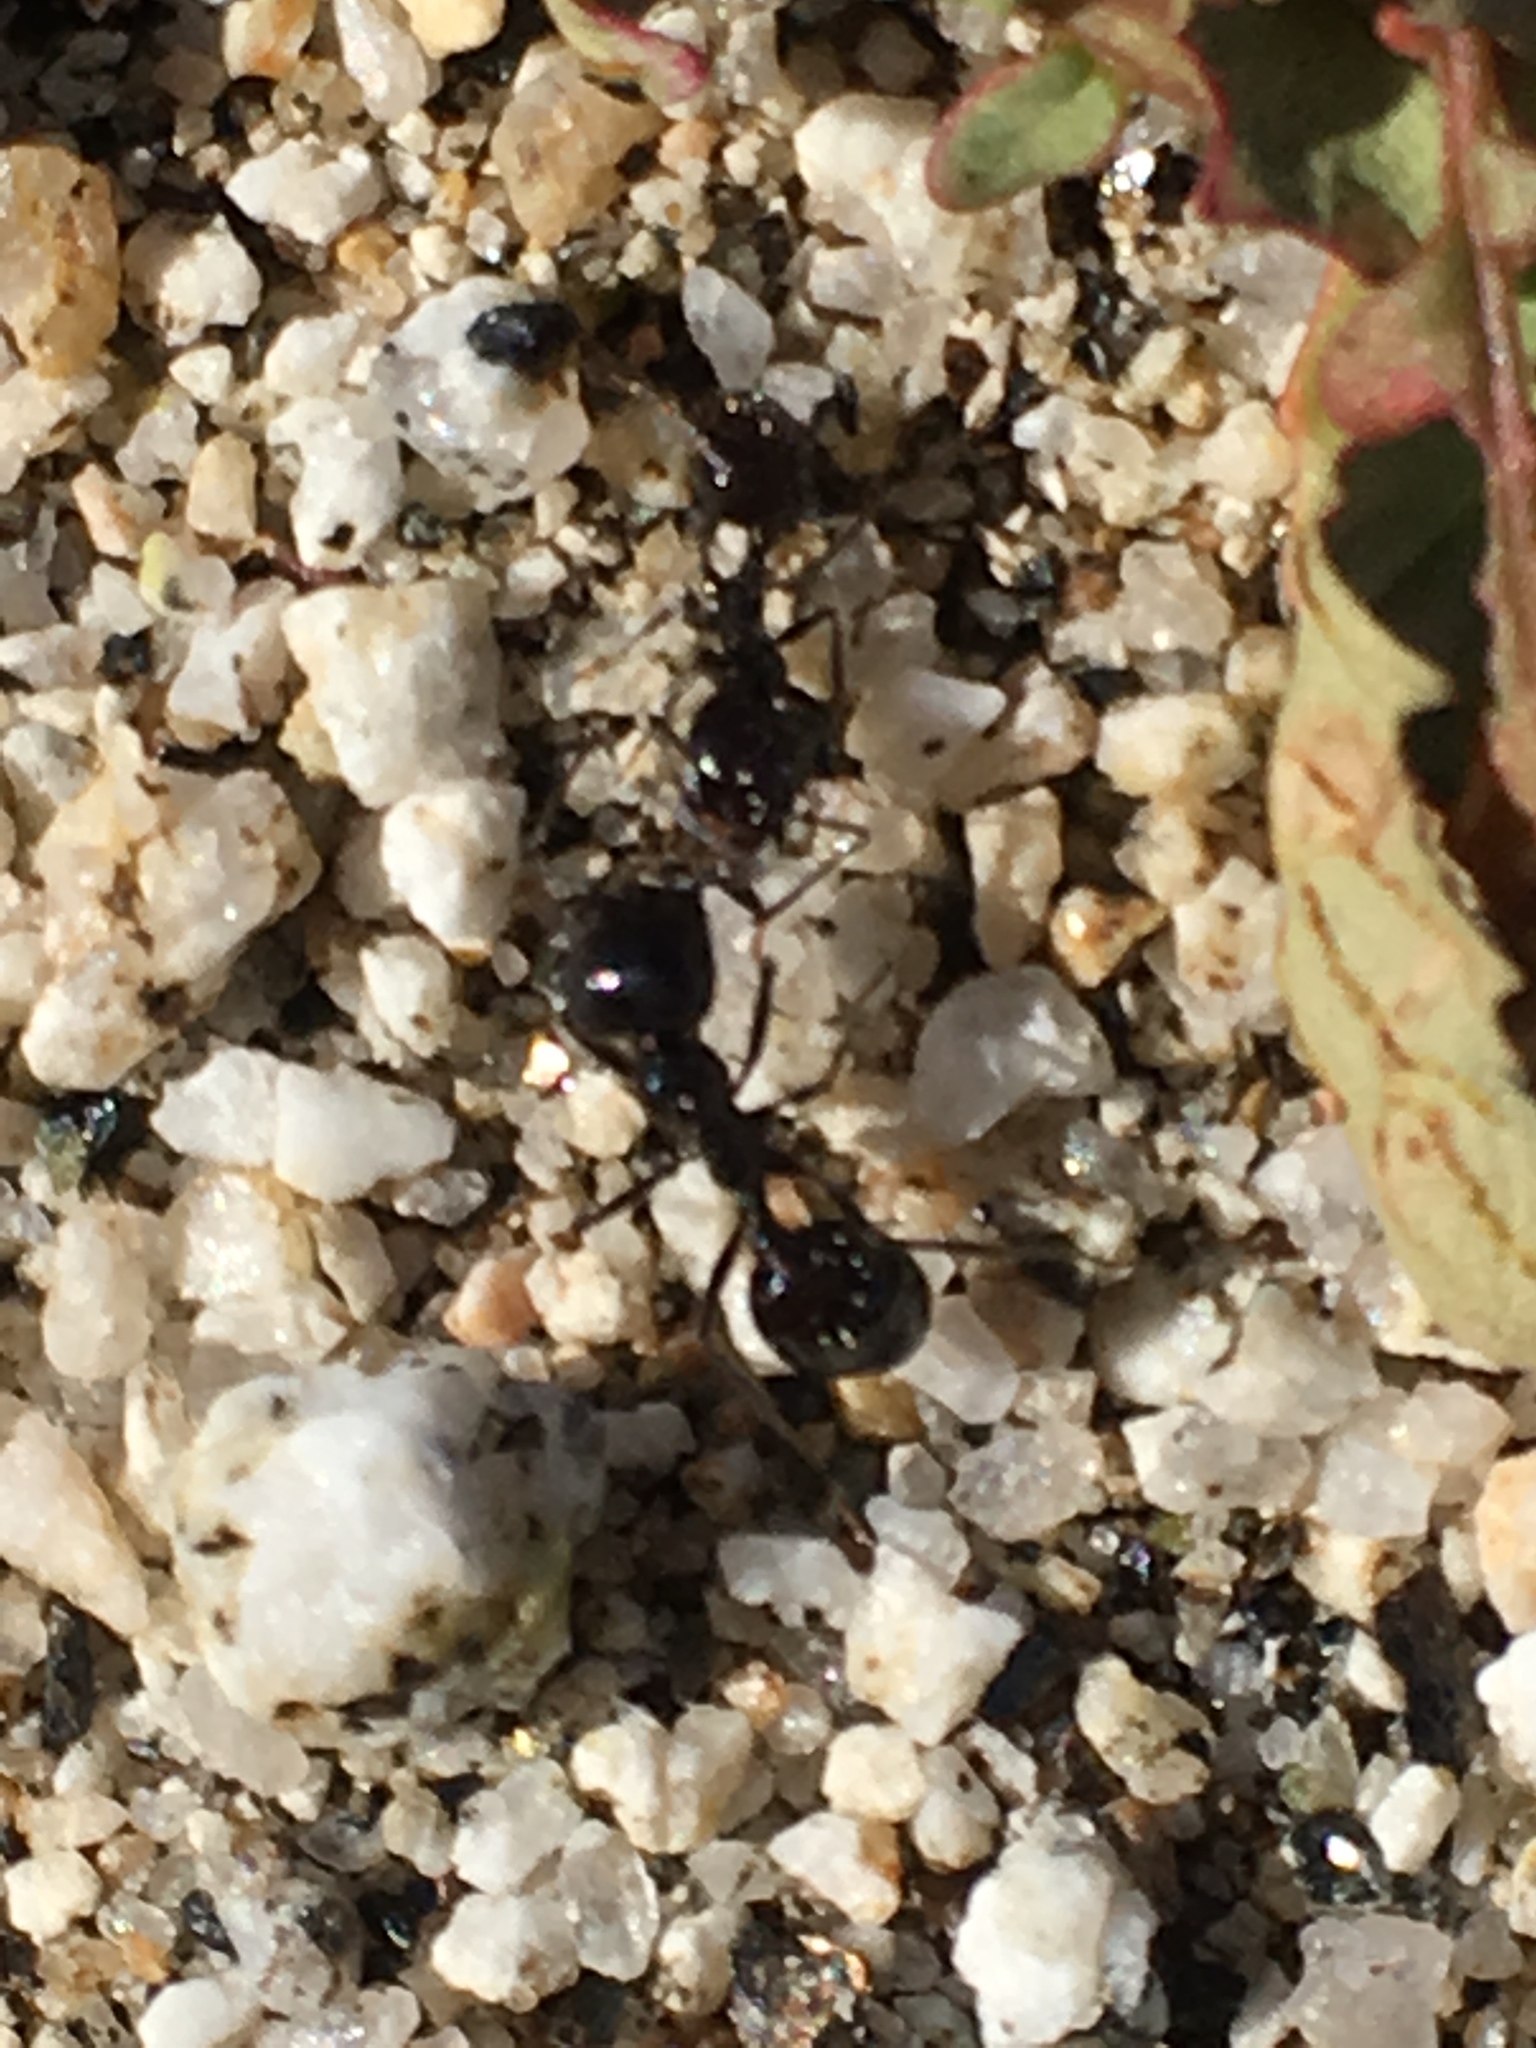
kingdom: Animalia
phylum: Arthropoda
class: Insecta
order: Hymenoptera
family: Formicidae
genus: Messor
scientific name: Messor pergandei
